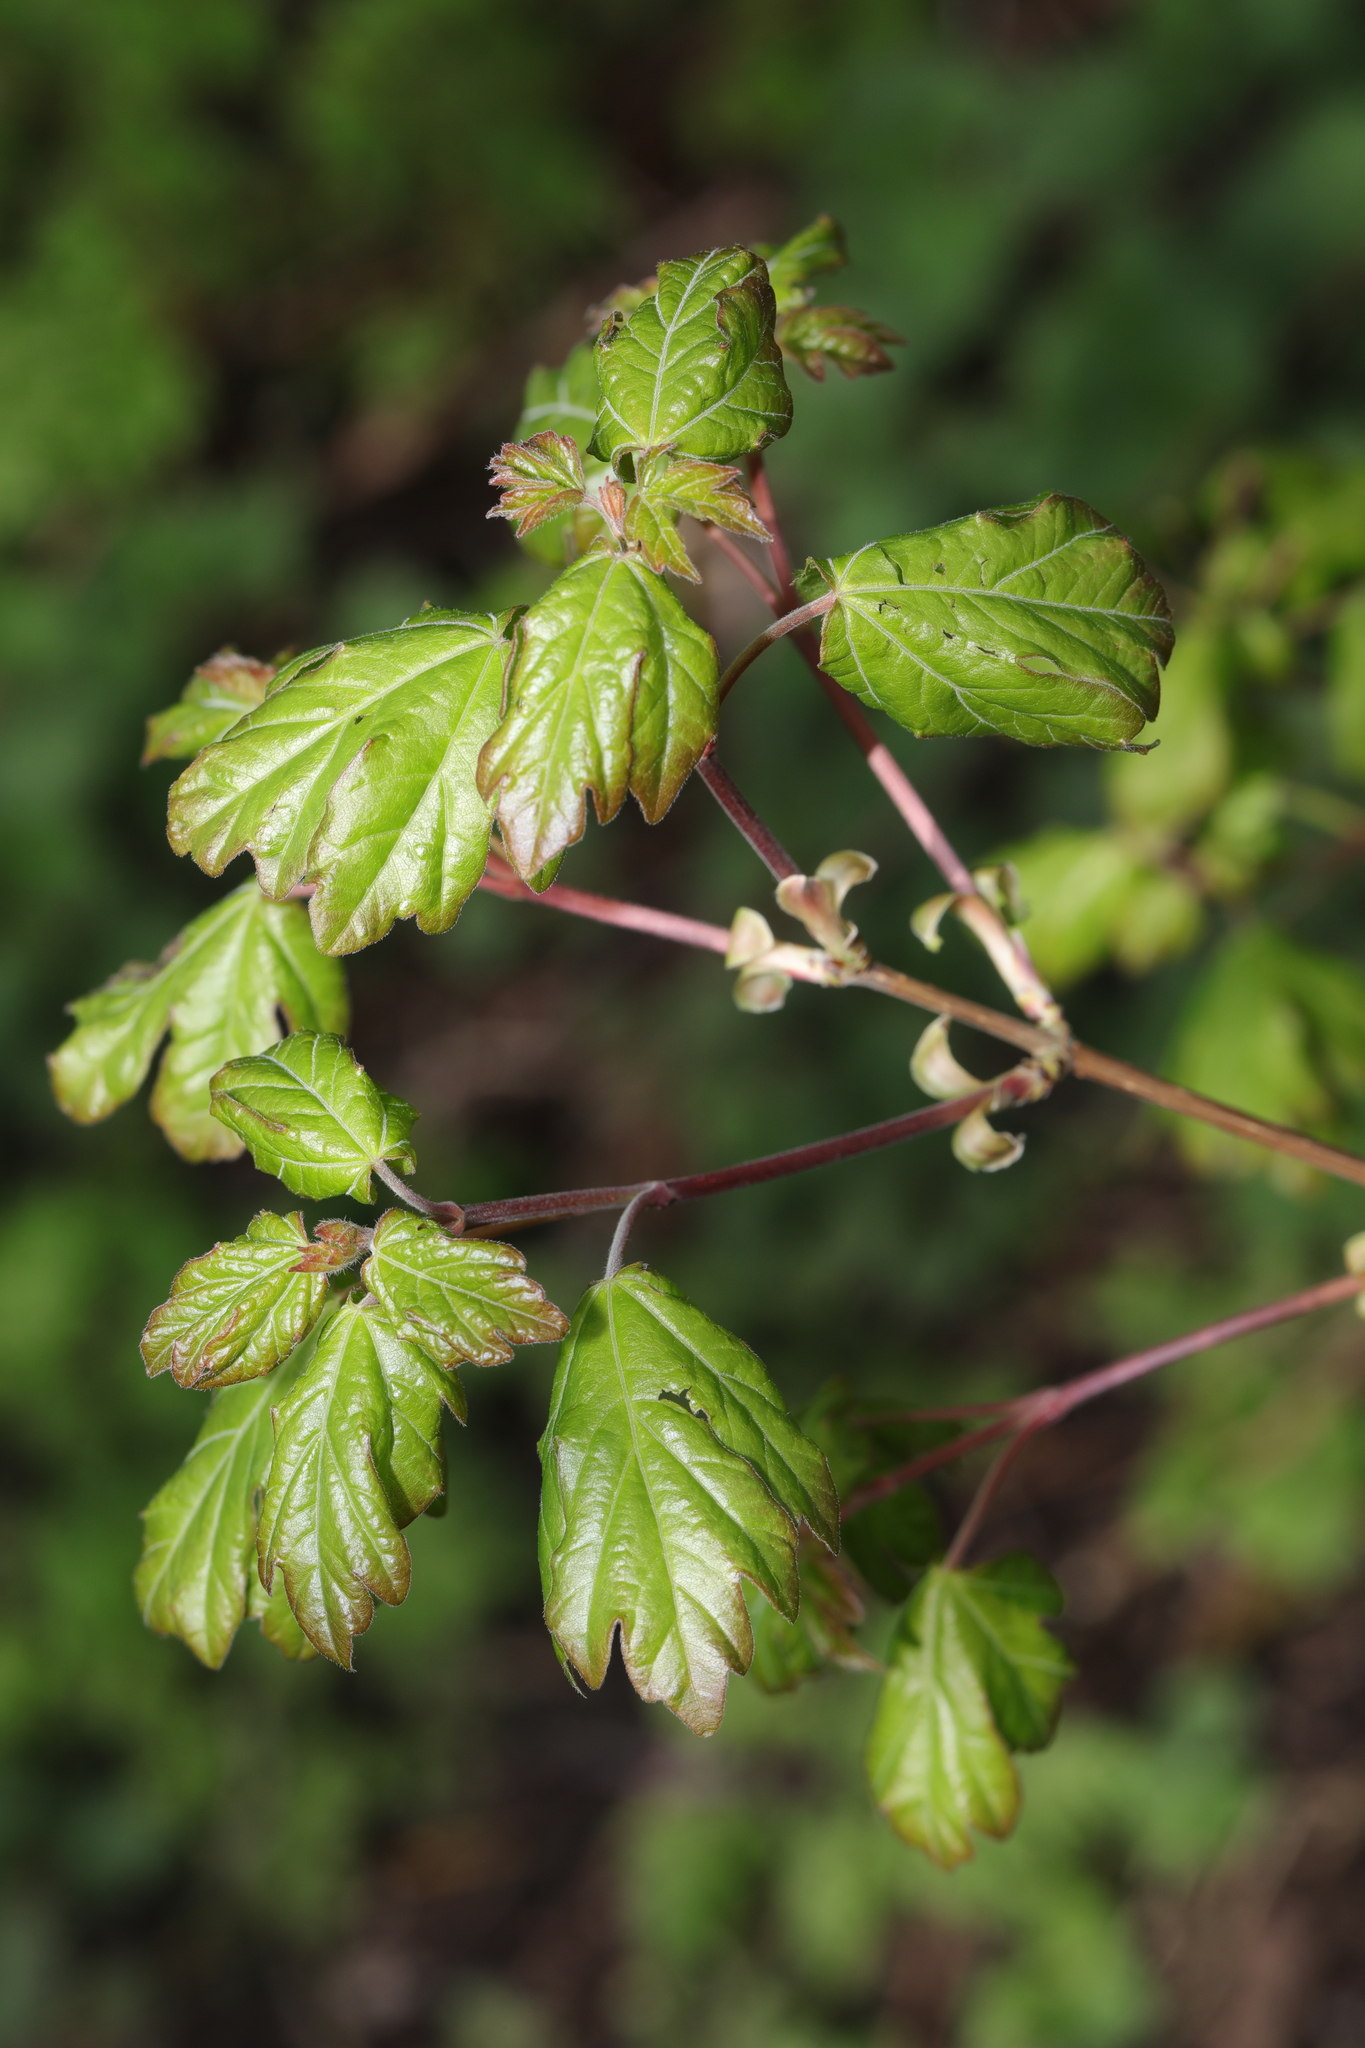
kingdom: Plantae
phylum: Tracheophyta
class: Magnoliopsida
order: Sapindales
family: Sapindaceae
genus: Acer
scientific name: Acer campestre
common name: Field maple
